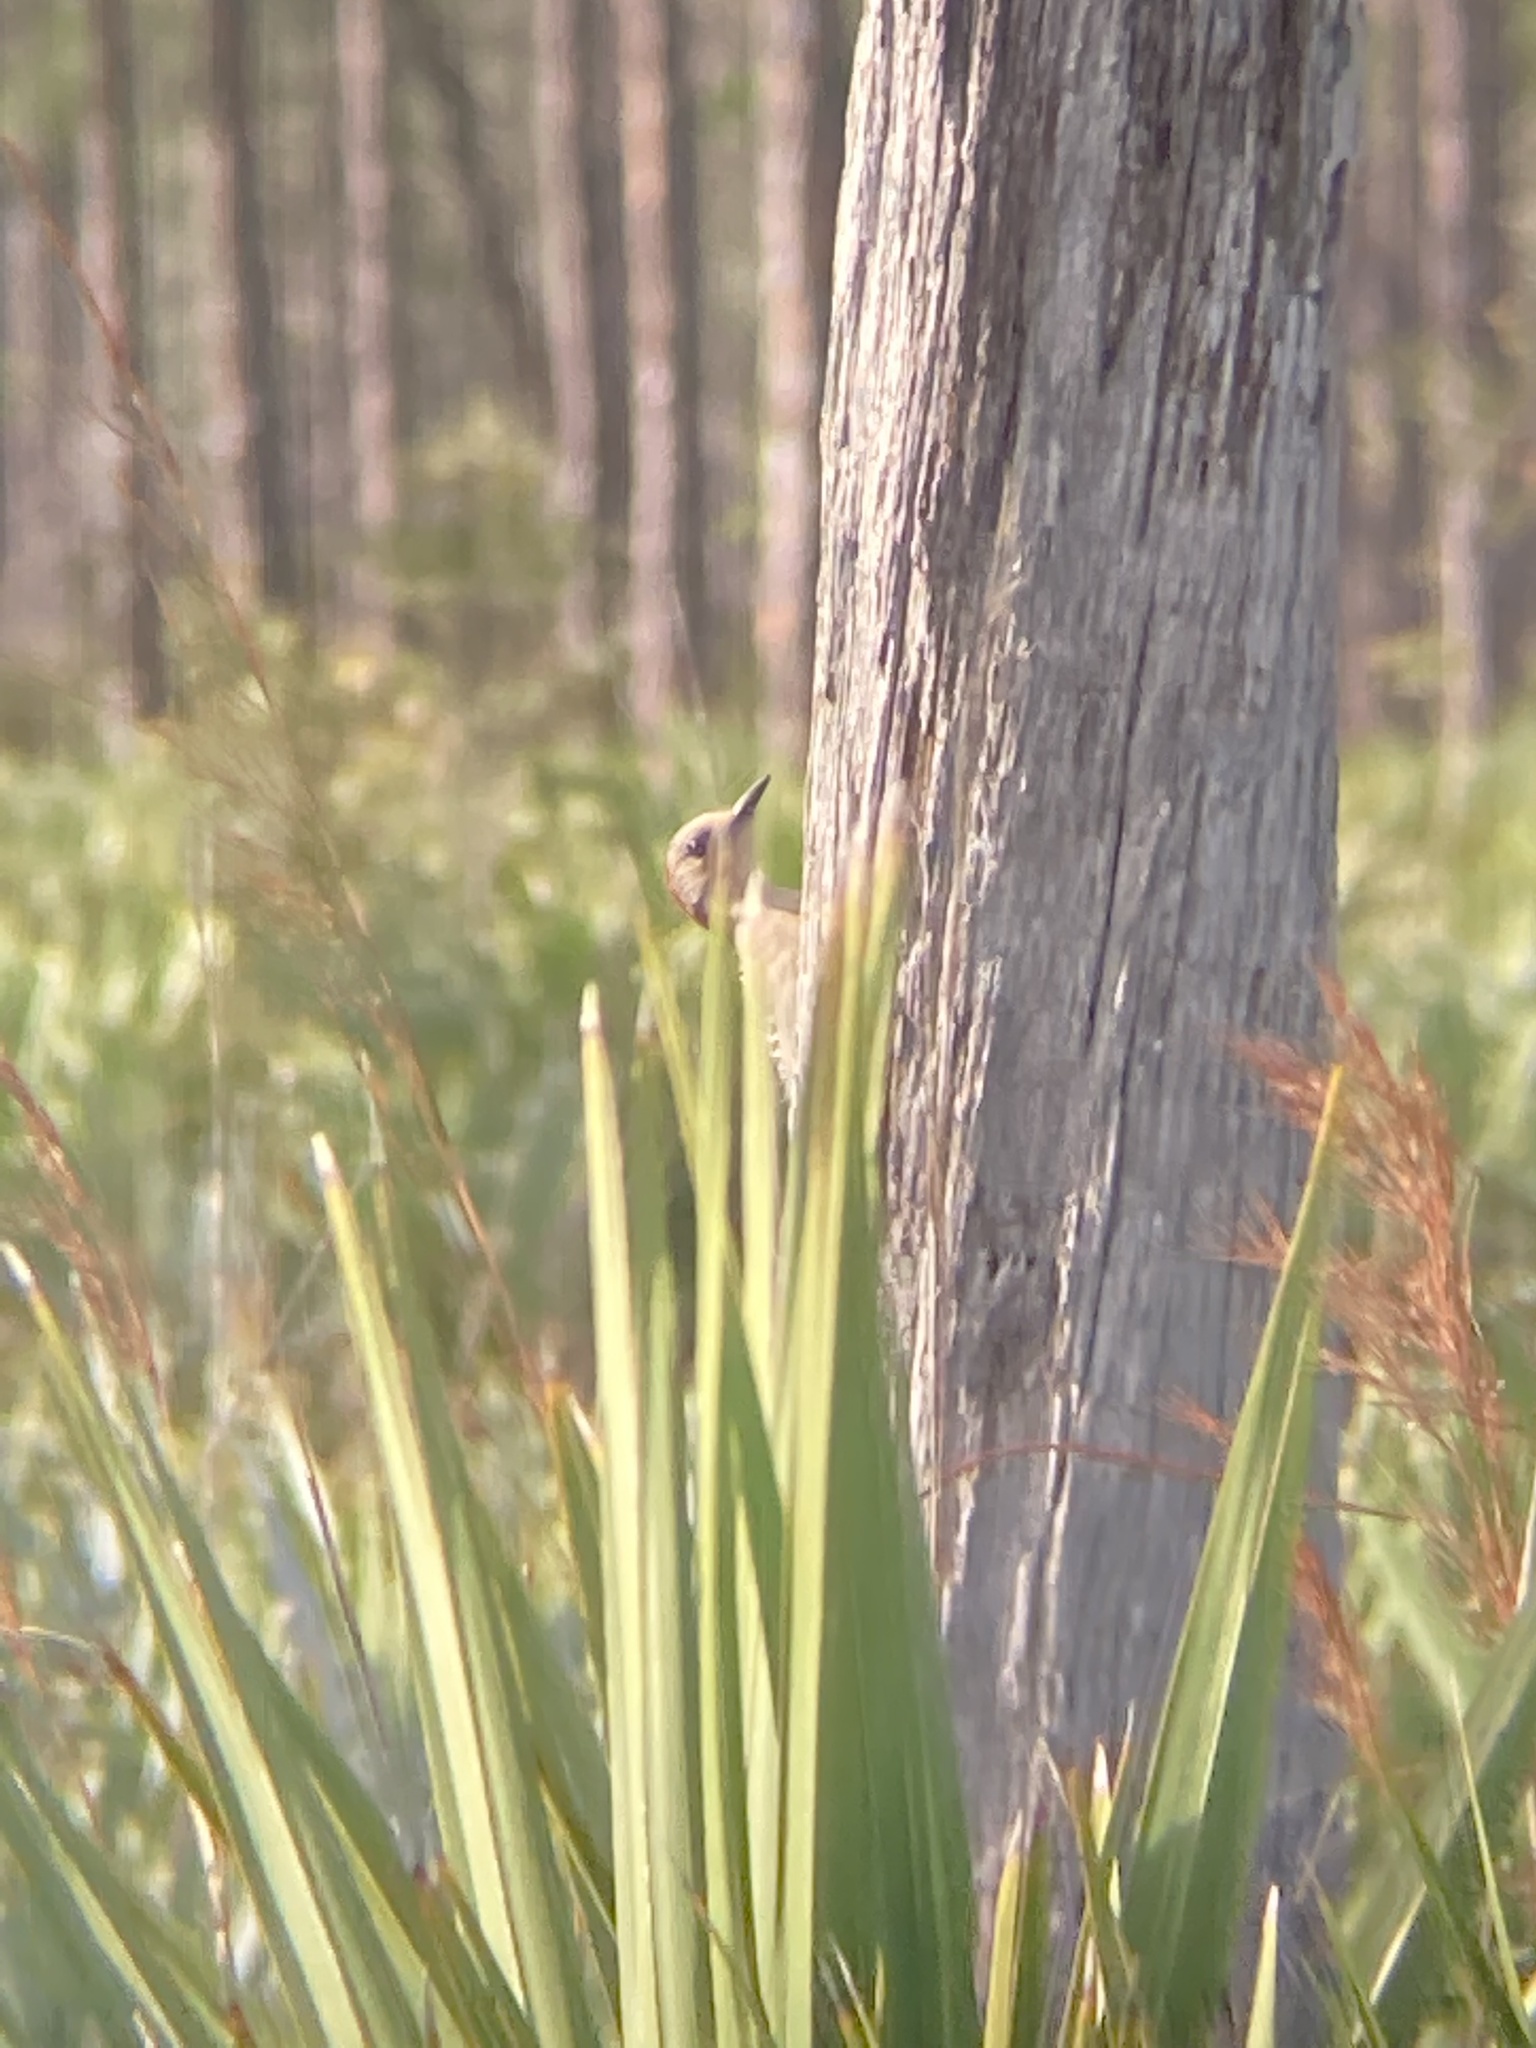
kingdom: Animalia
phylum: Chordata
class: Aves
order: Piciformes
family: Picidae
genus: Melanerpes
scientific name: Melanerpes carolinus
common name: Red-bellied woodpecker
